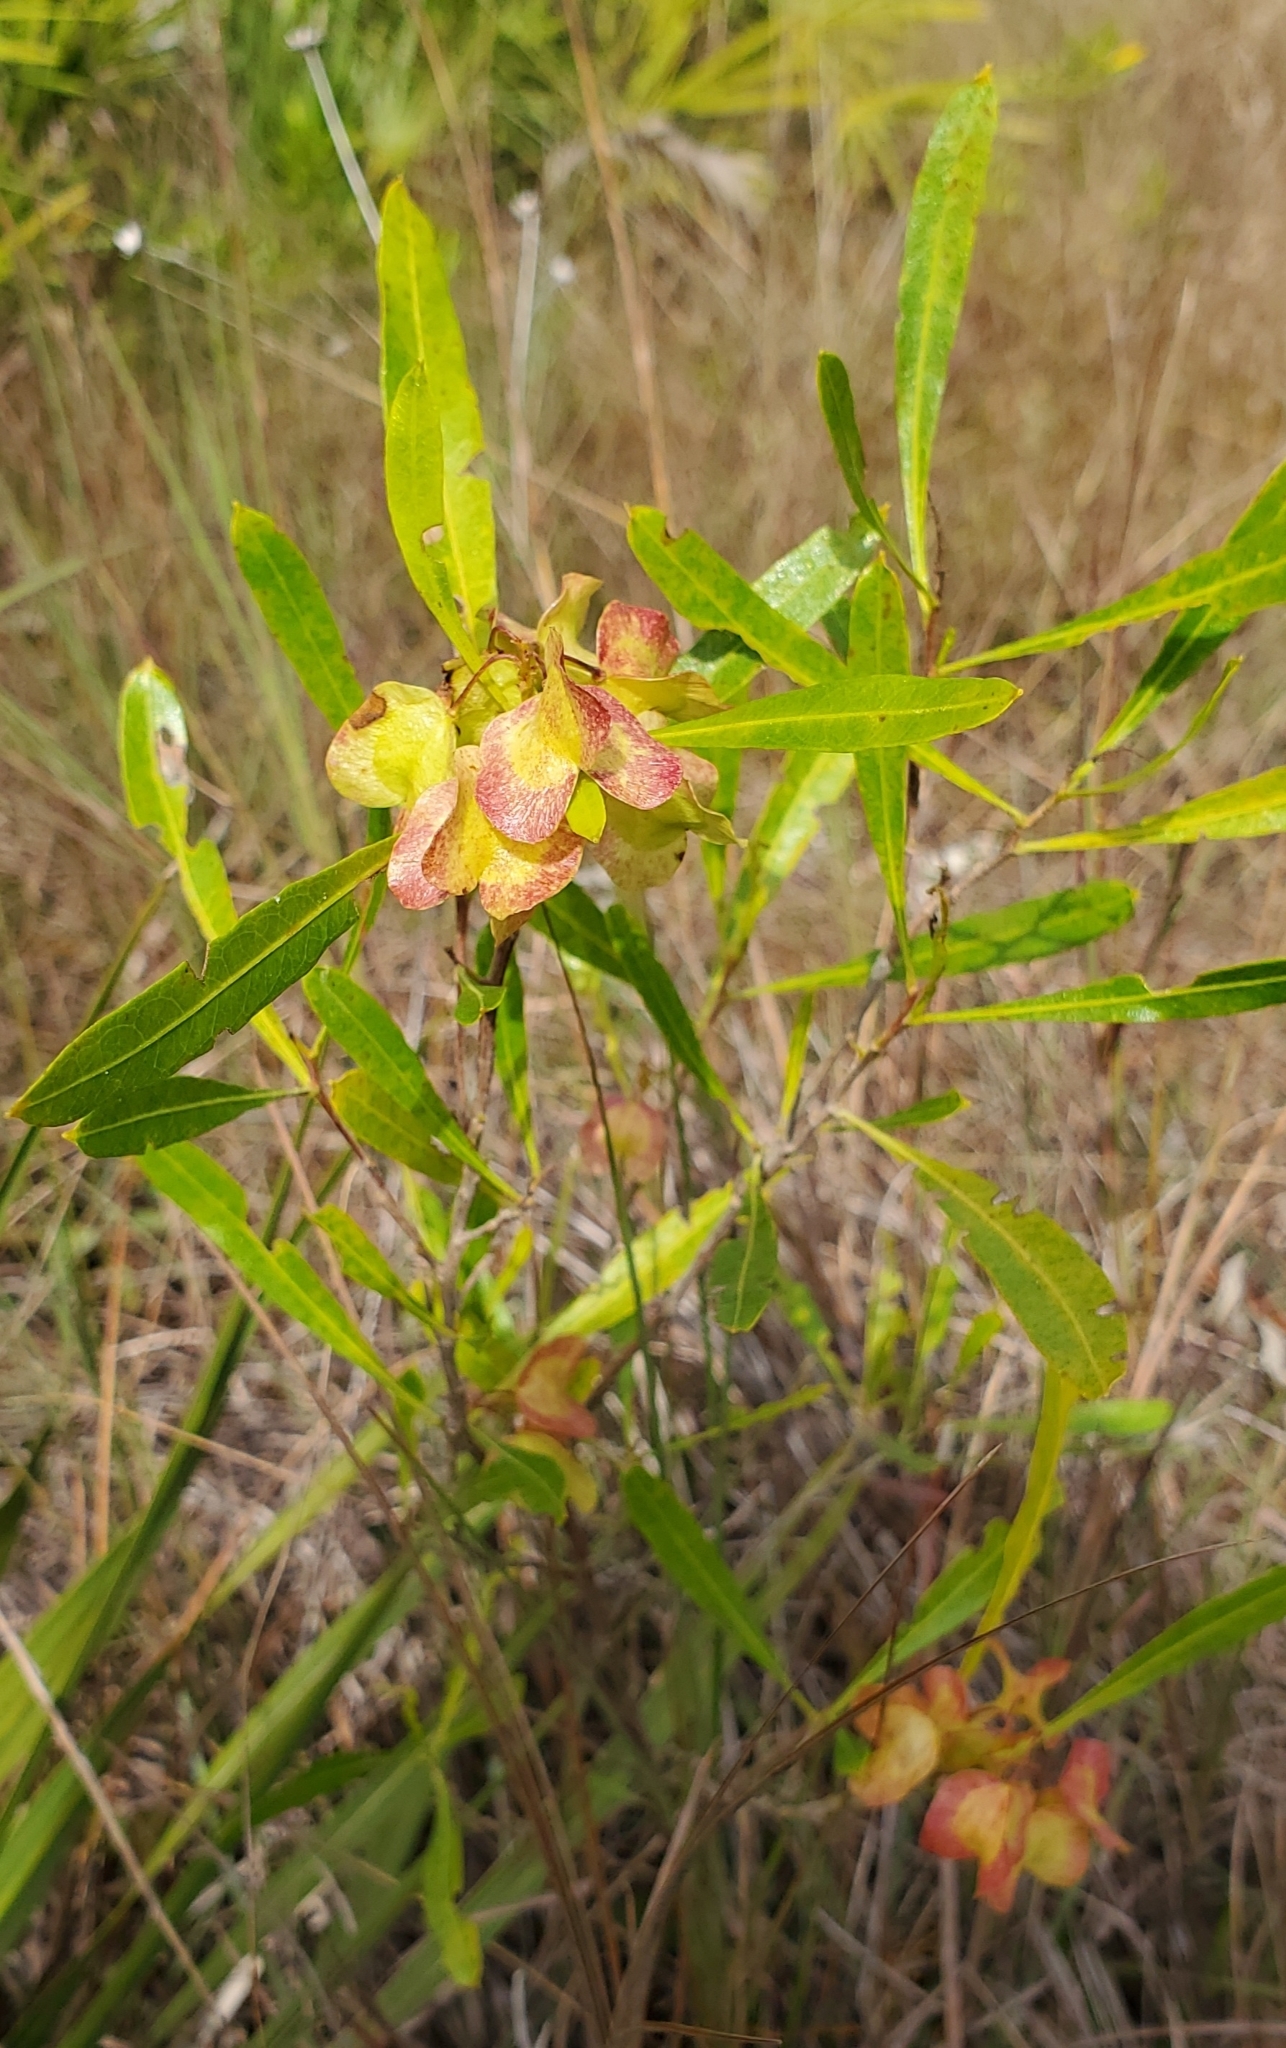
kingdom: Plantae
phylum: Tracheophyta
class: Magnoliopsida
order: Sapindales
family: Sapindaceae
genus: Dodonaea
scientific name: Dodonaea viscosa
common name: Hopbush
